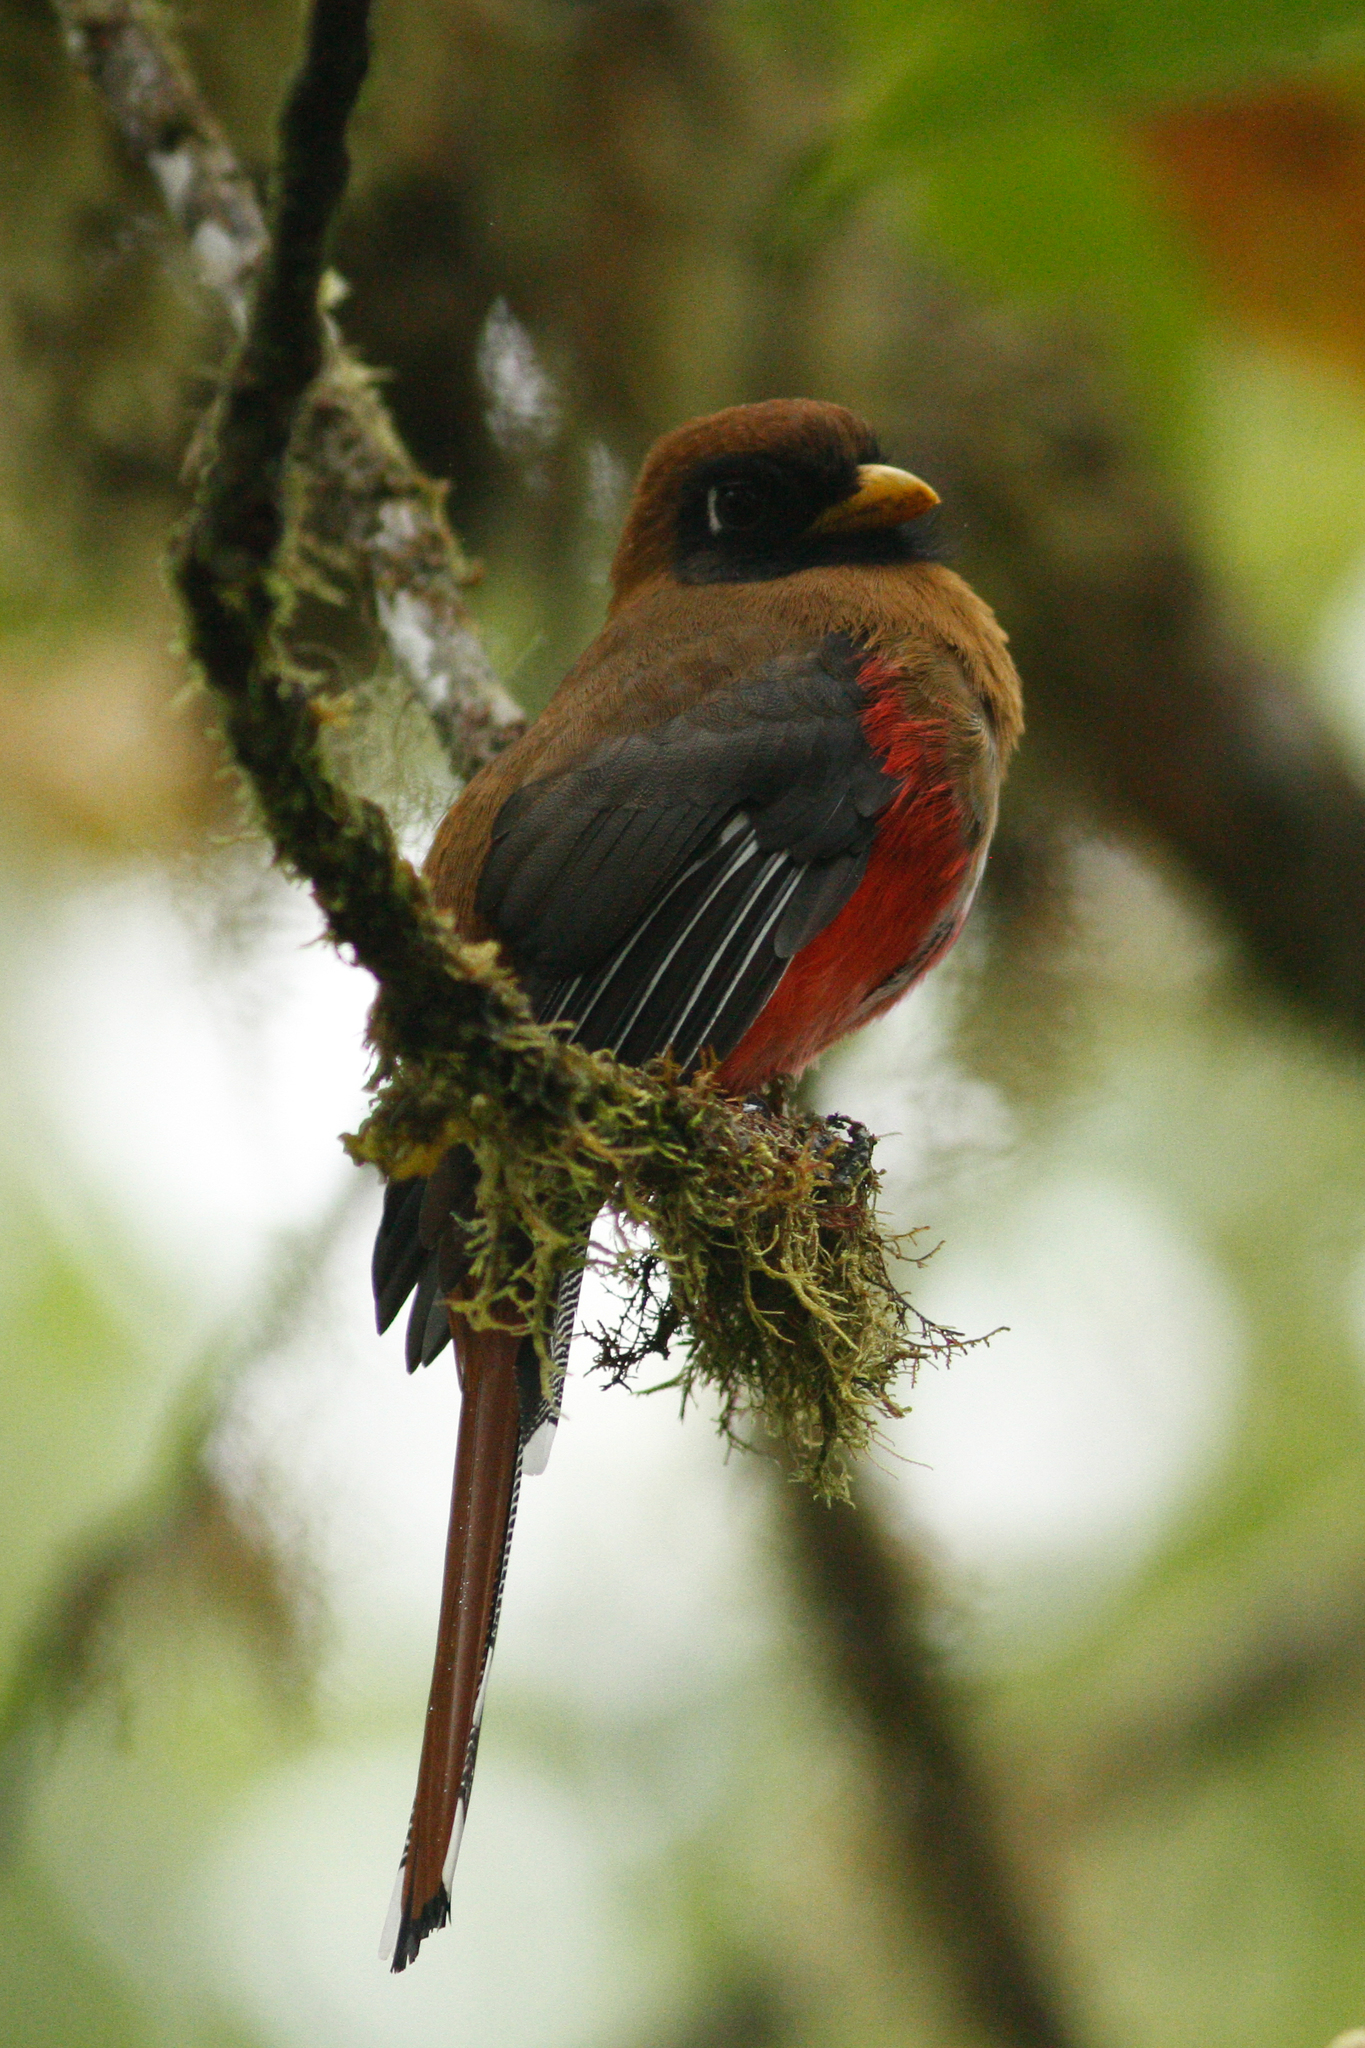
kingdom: Animalia
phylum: Chordata
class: Aves
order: Trogoniformes
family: Trogonidae
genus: Trogon
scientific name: Trogon personatus
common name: Masked trogon
